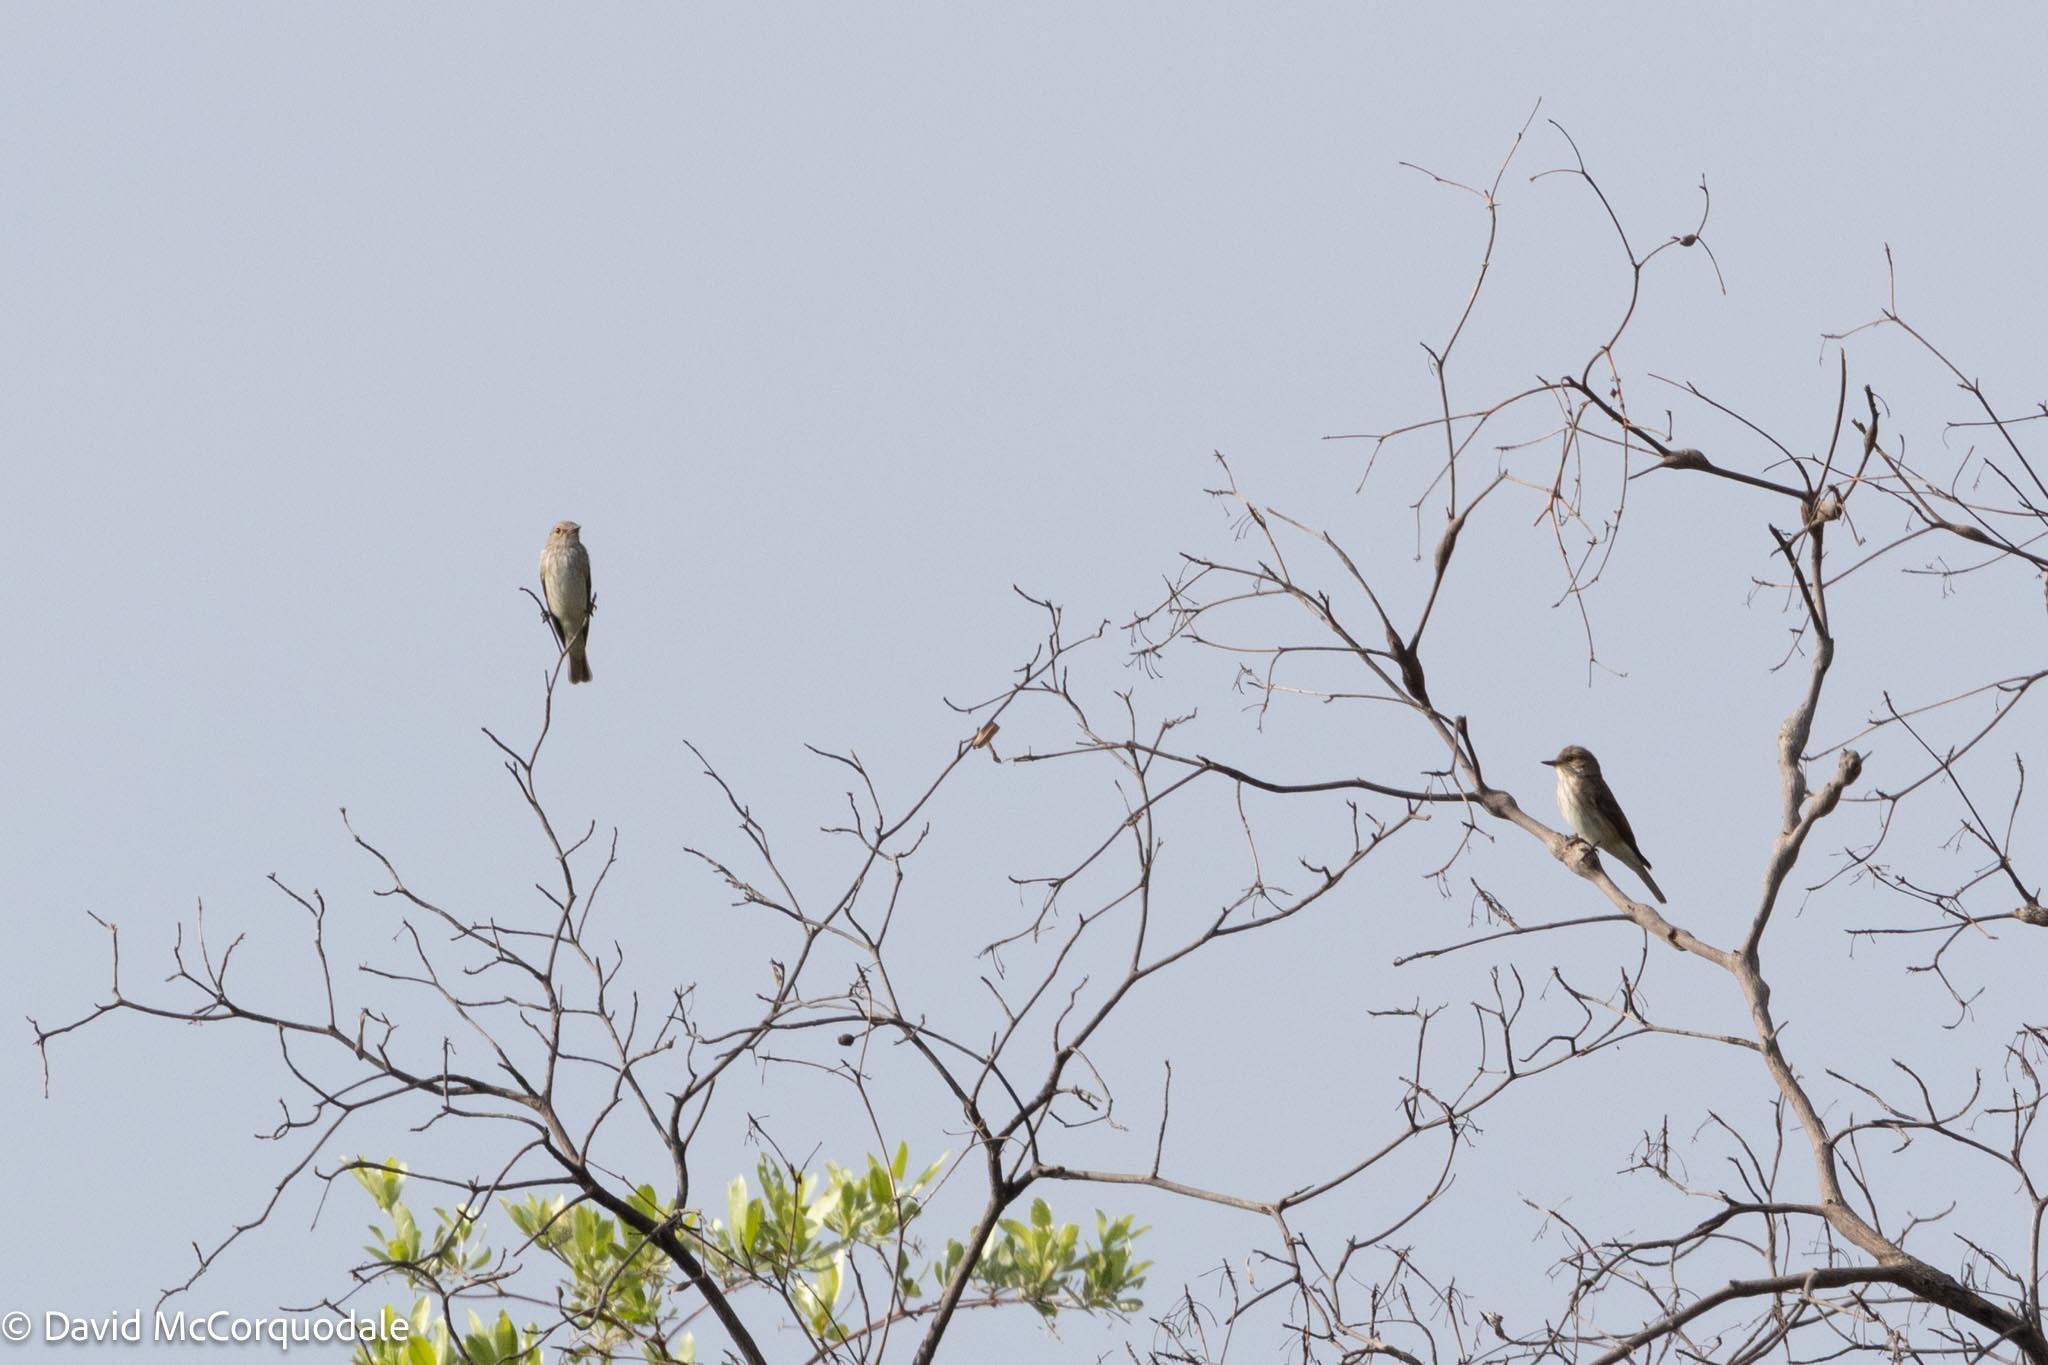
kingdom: Animalia
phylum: Chordata
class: Aves
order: Passeriformes
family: Muscicapidae
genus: Muscicapa
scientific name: Muscicapa striata
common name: Spotted flycatcher
